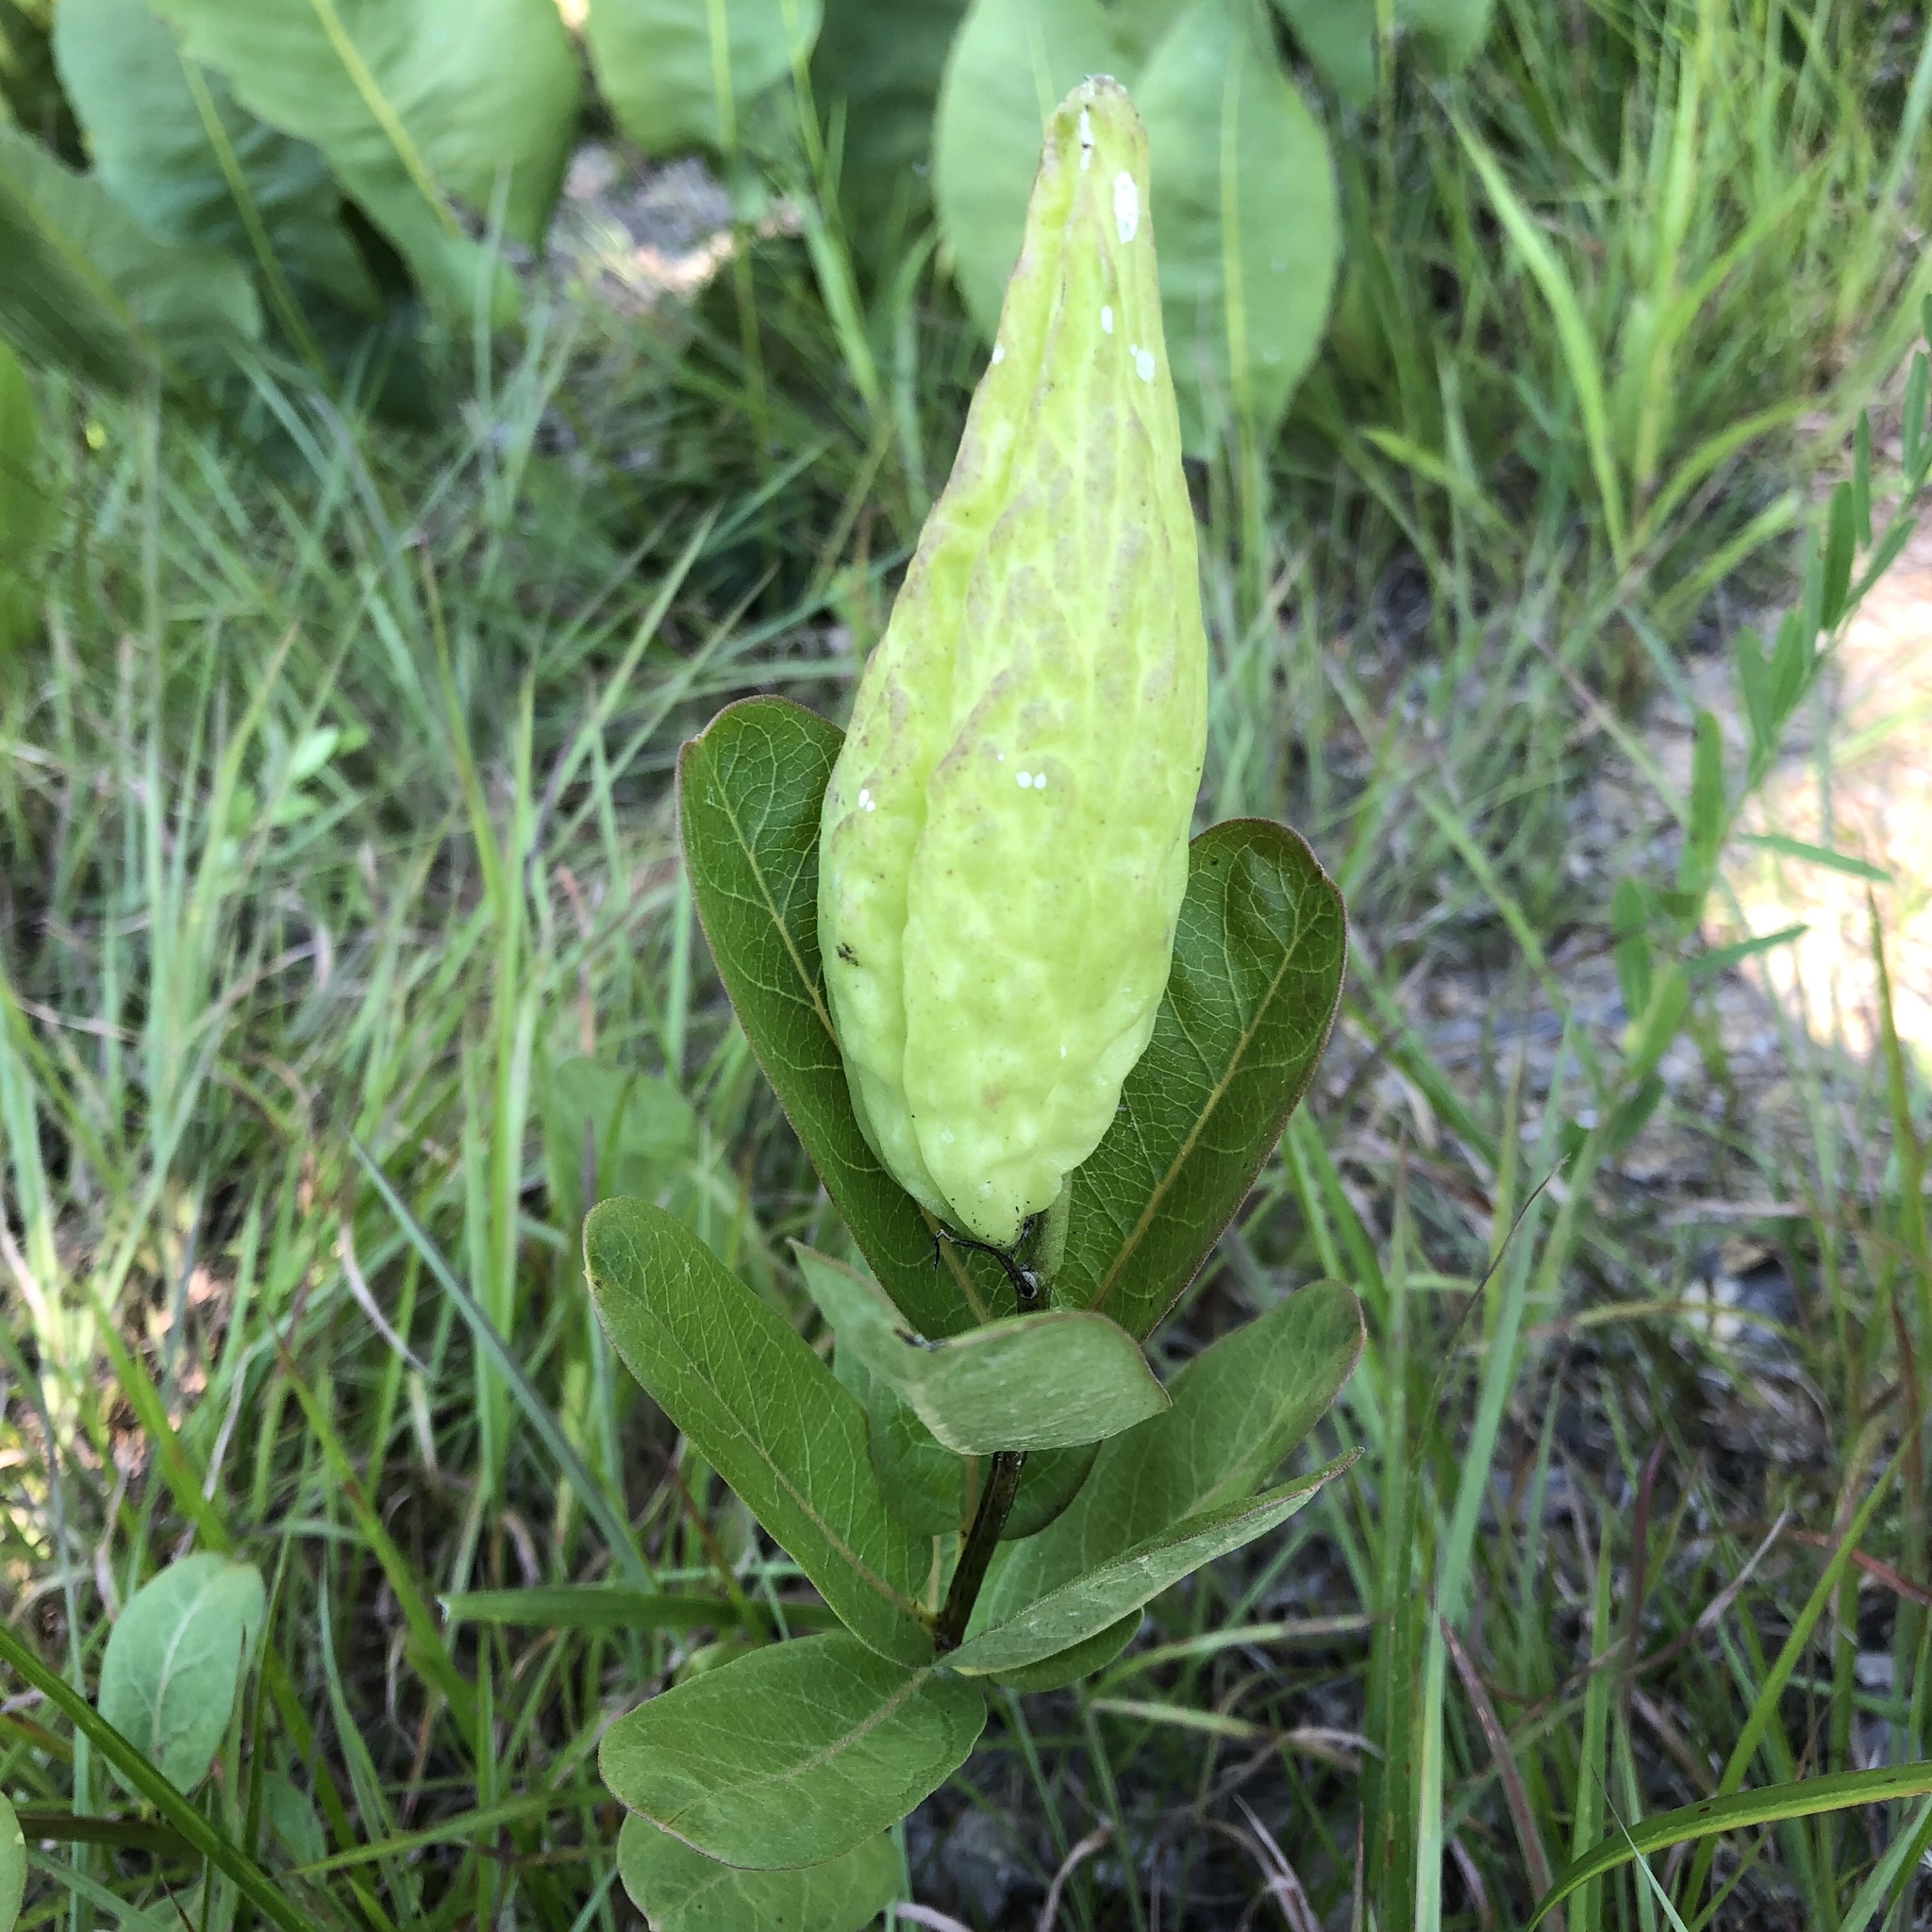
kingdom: Plantae
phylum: Tracheophyta
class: Magnoliopsida
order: Gentianales
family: Apocynaceae
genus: Asclepias
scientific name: Asclepias viridis
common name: Antelope-horns
